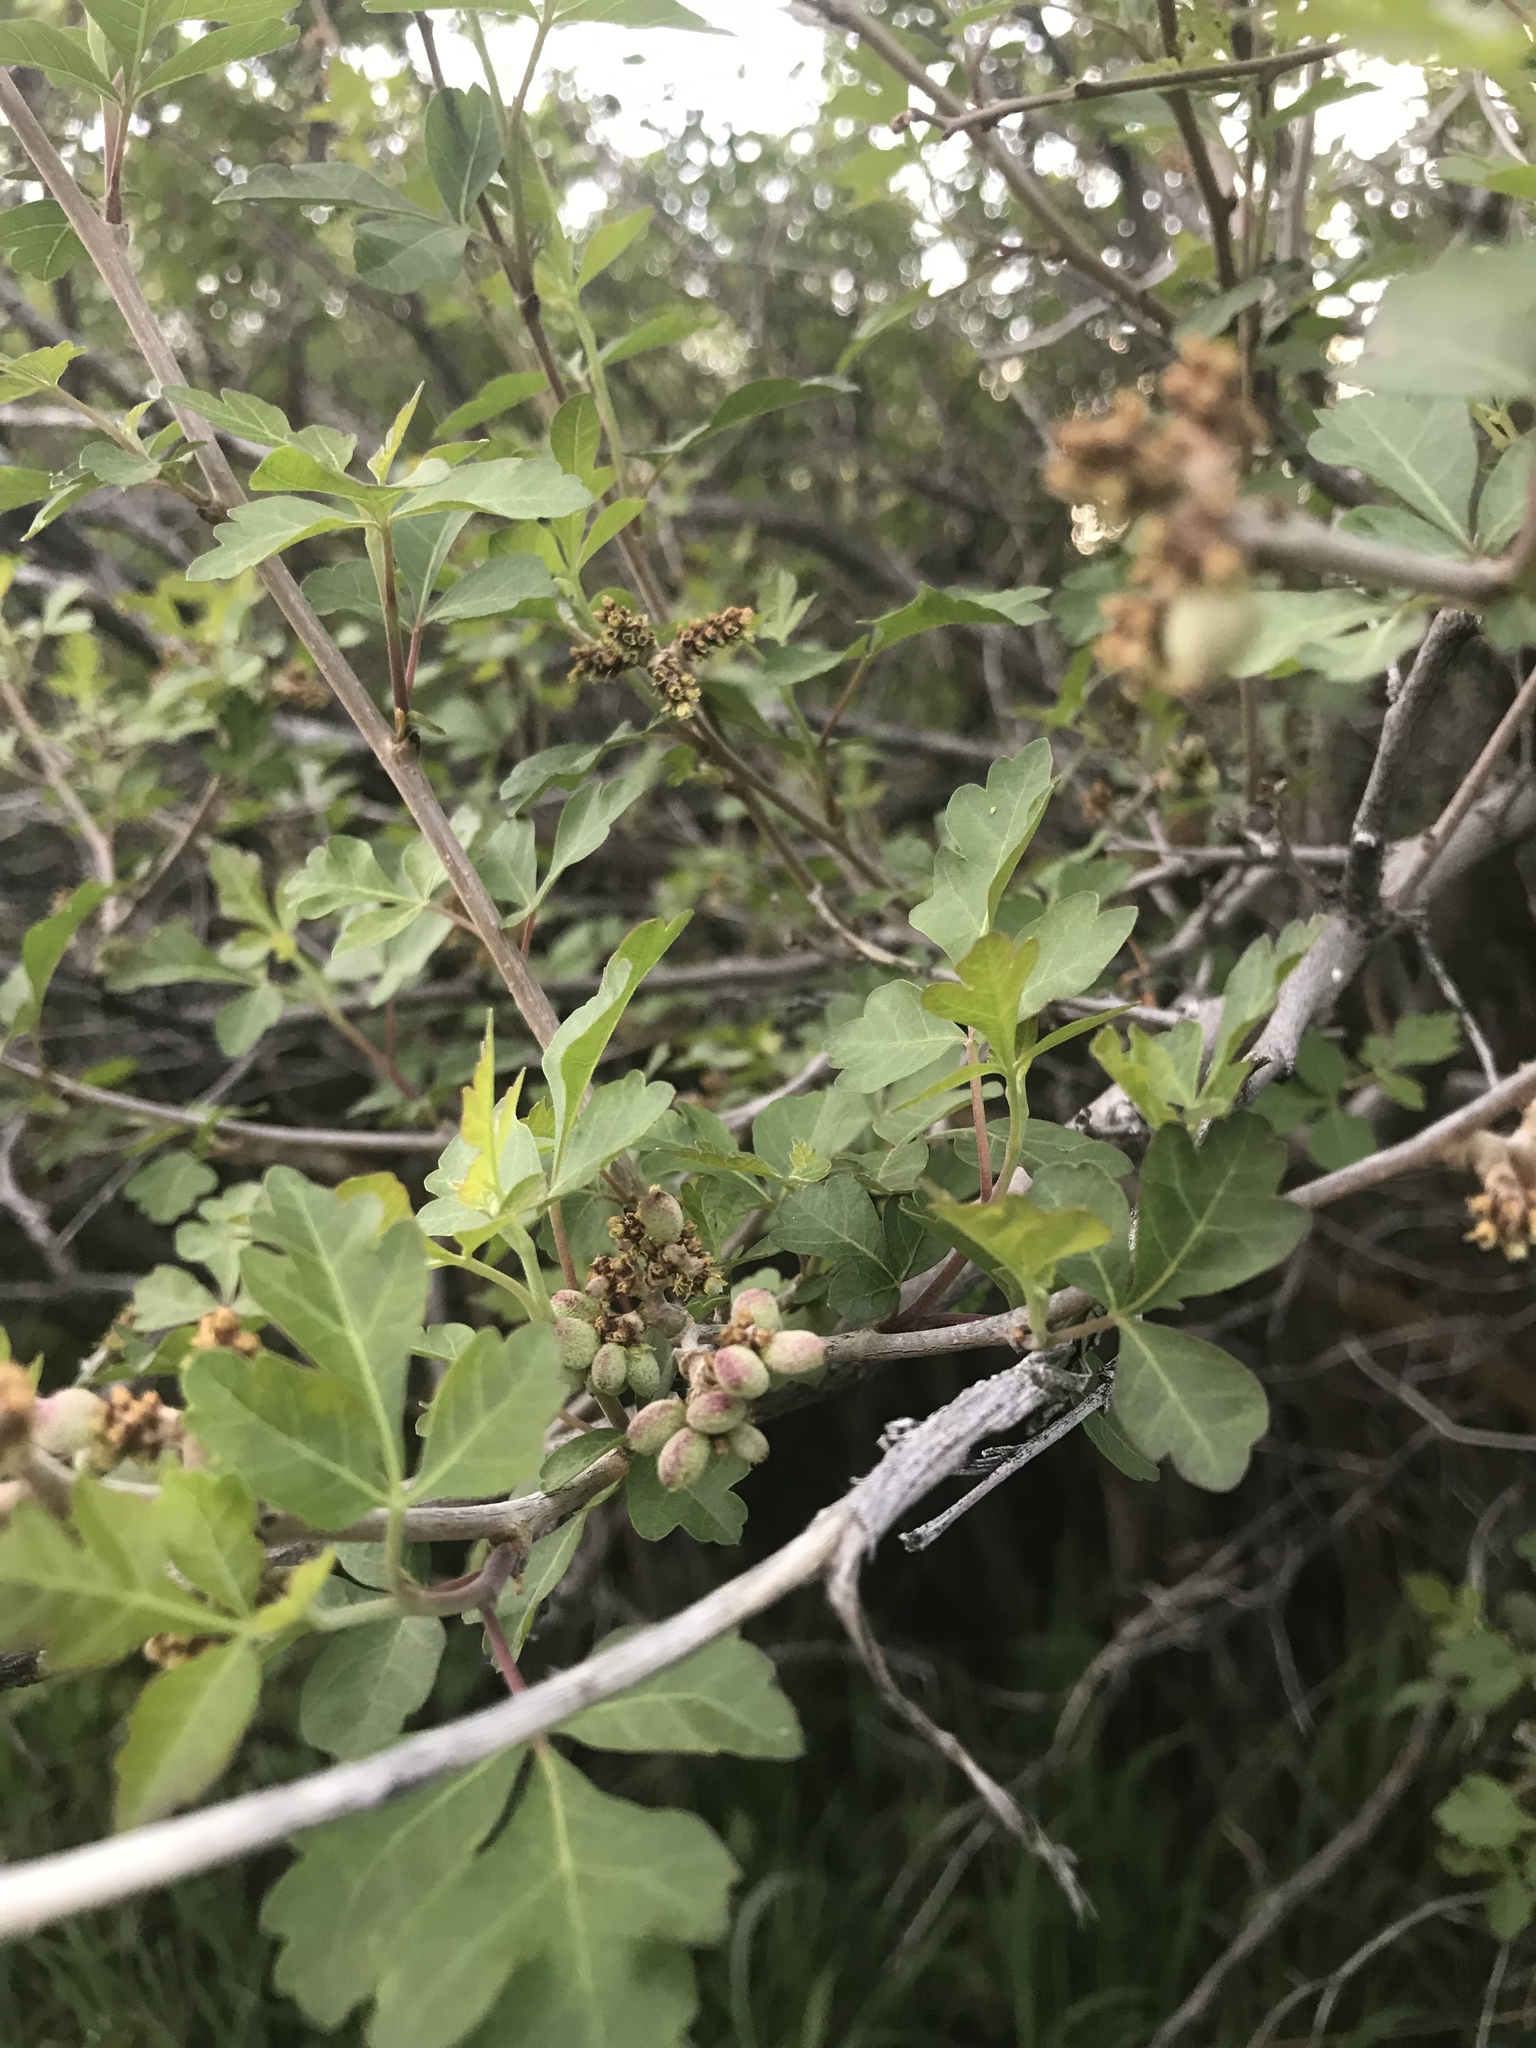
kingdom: Plantae
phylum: Tracheophyta
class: Magnoliopsida
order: Sapindales
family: Anacardiaceae
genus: Rhus
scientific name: Rhus aromatica
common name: Aromatic sumac
